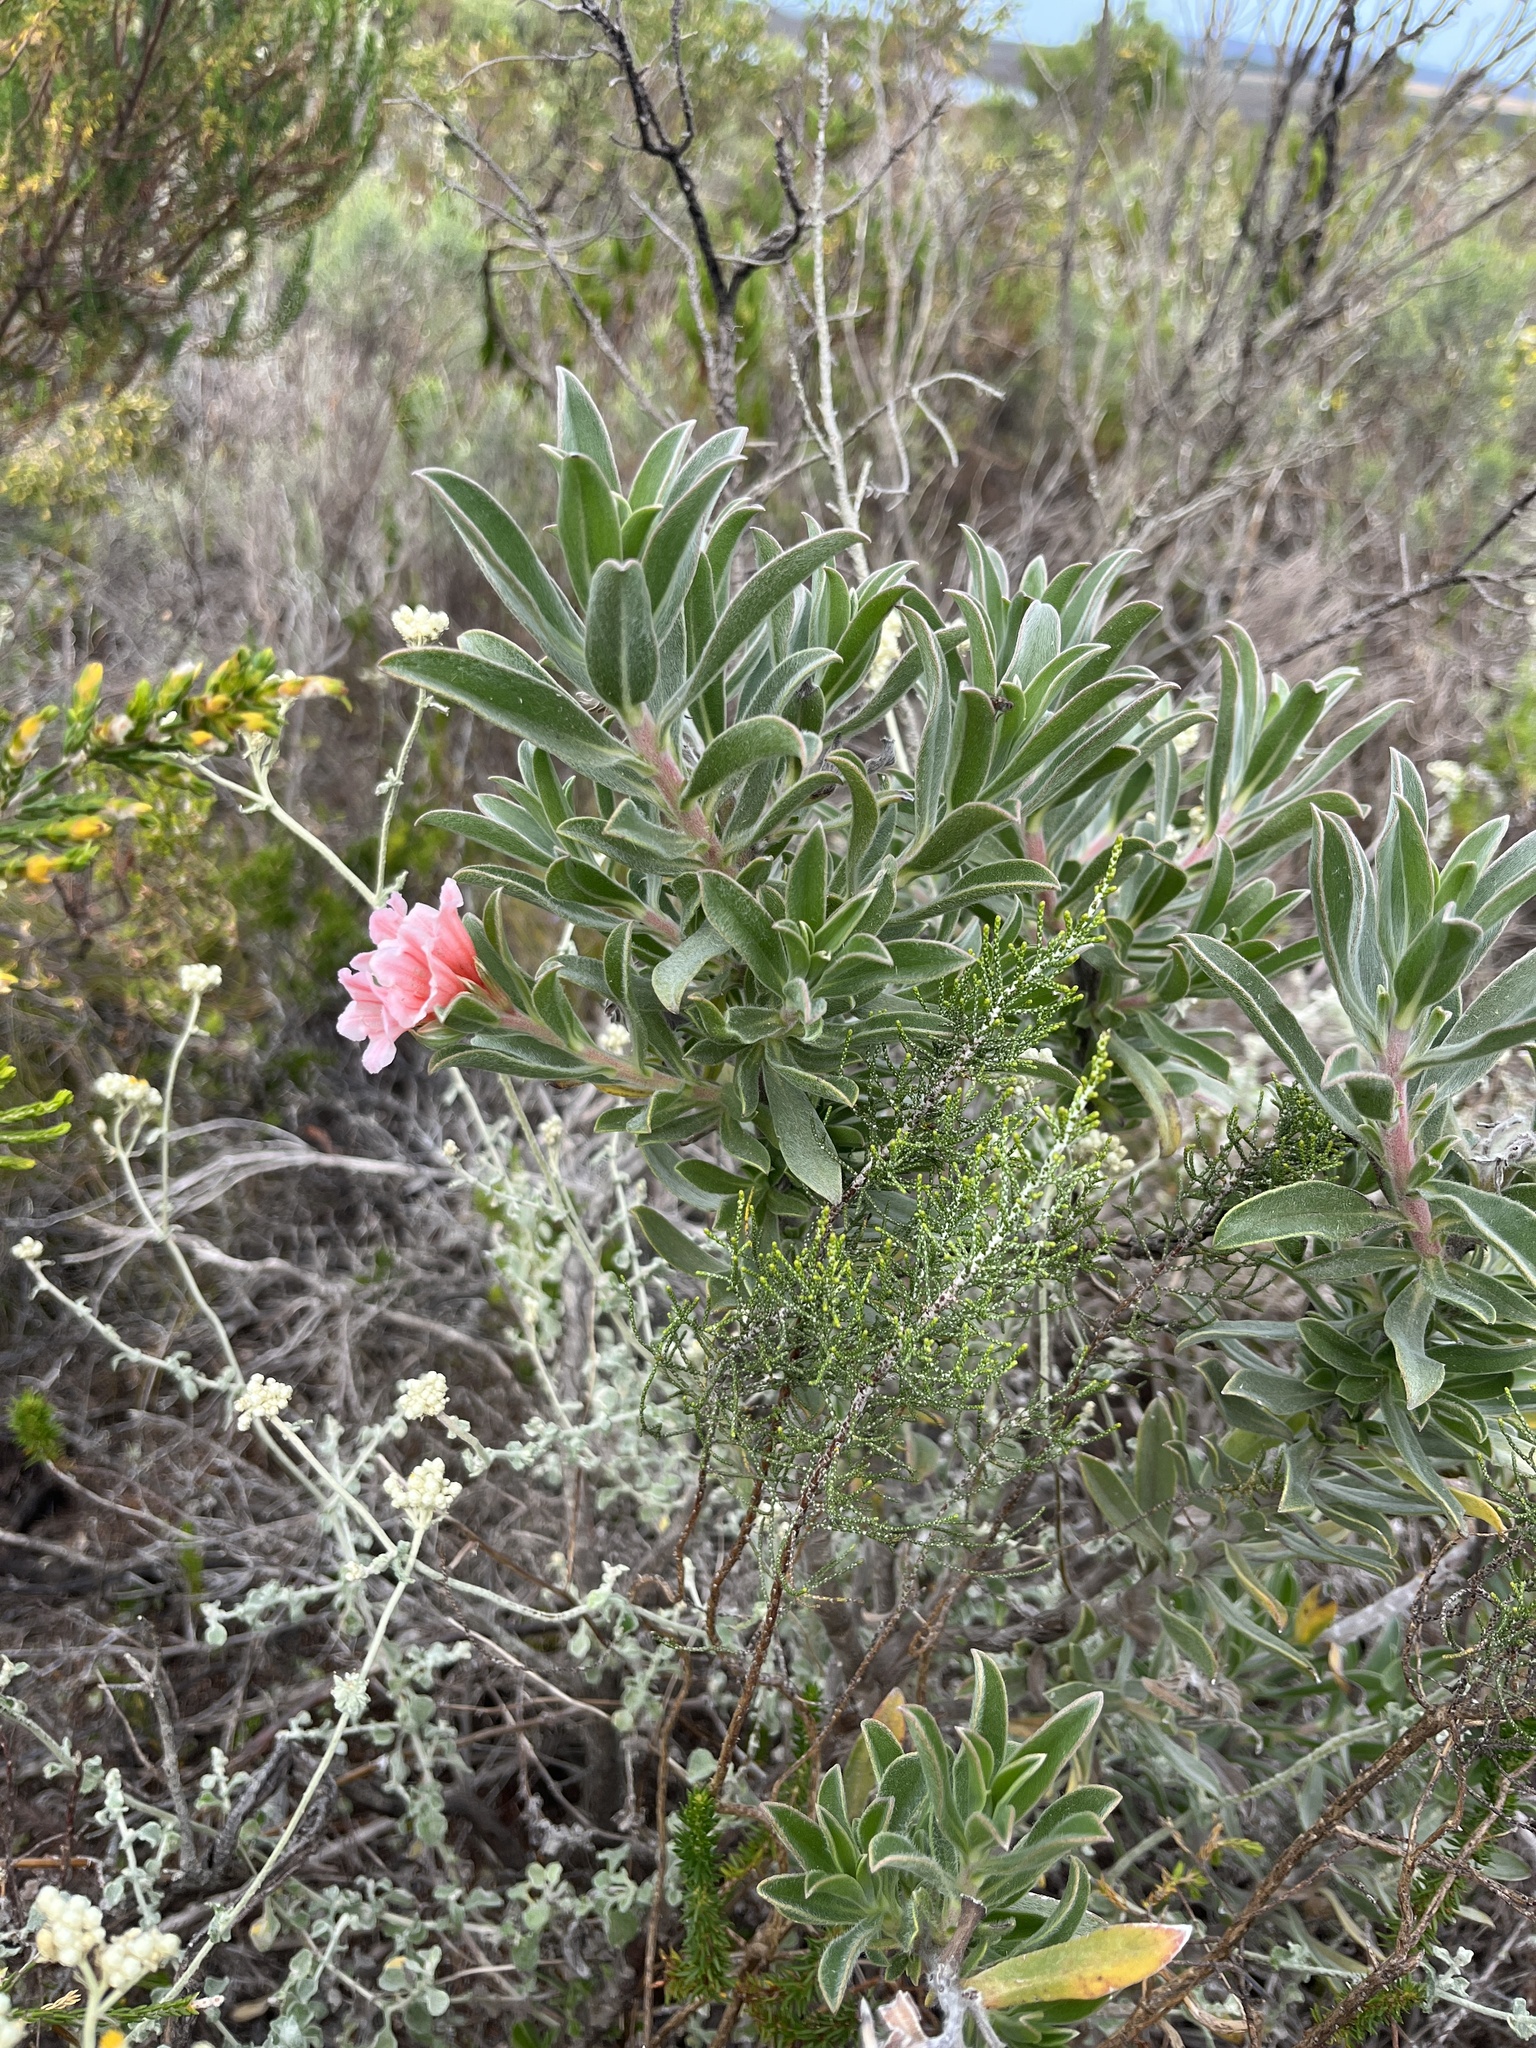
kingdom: Plantae
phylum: Tracheophyta
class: Magnoliopsida
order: Boraginales
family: Boraginaceae
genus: Lobostemon
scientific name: Lobostemon fruticosus
